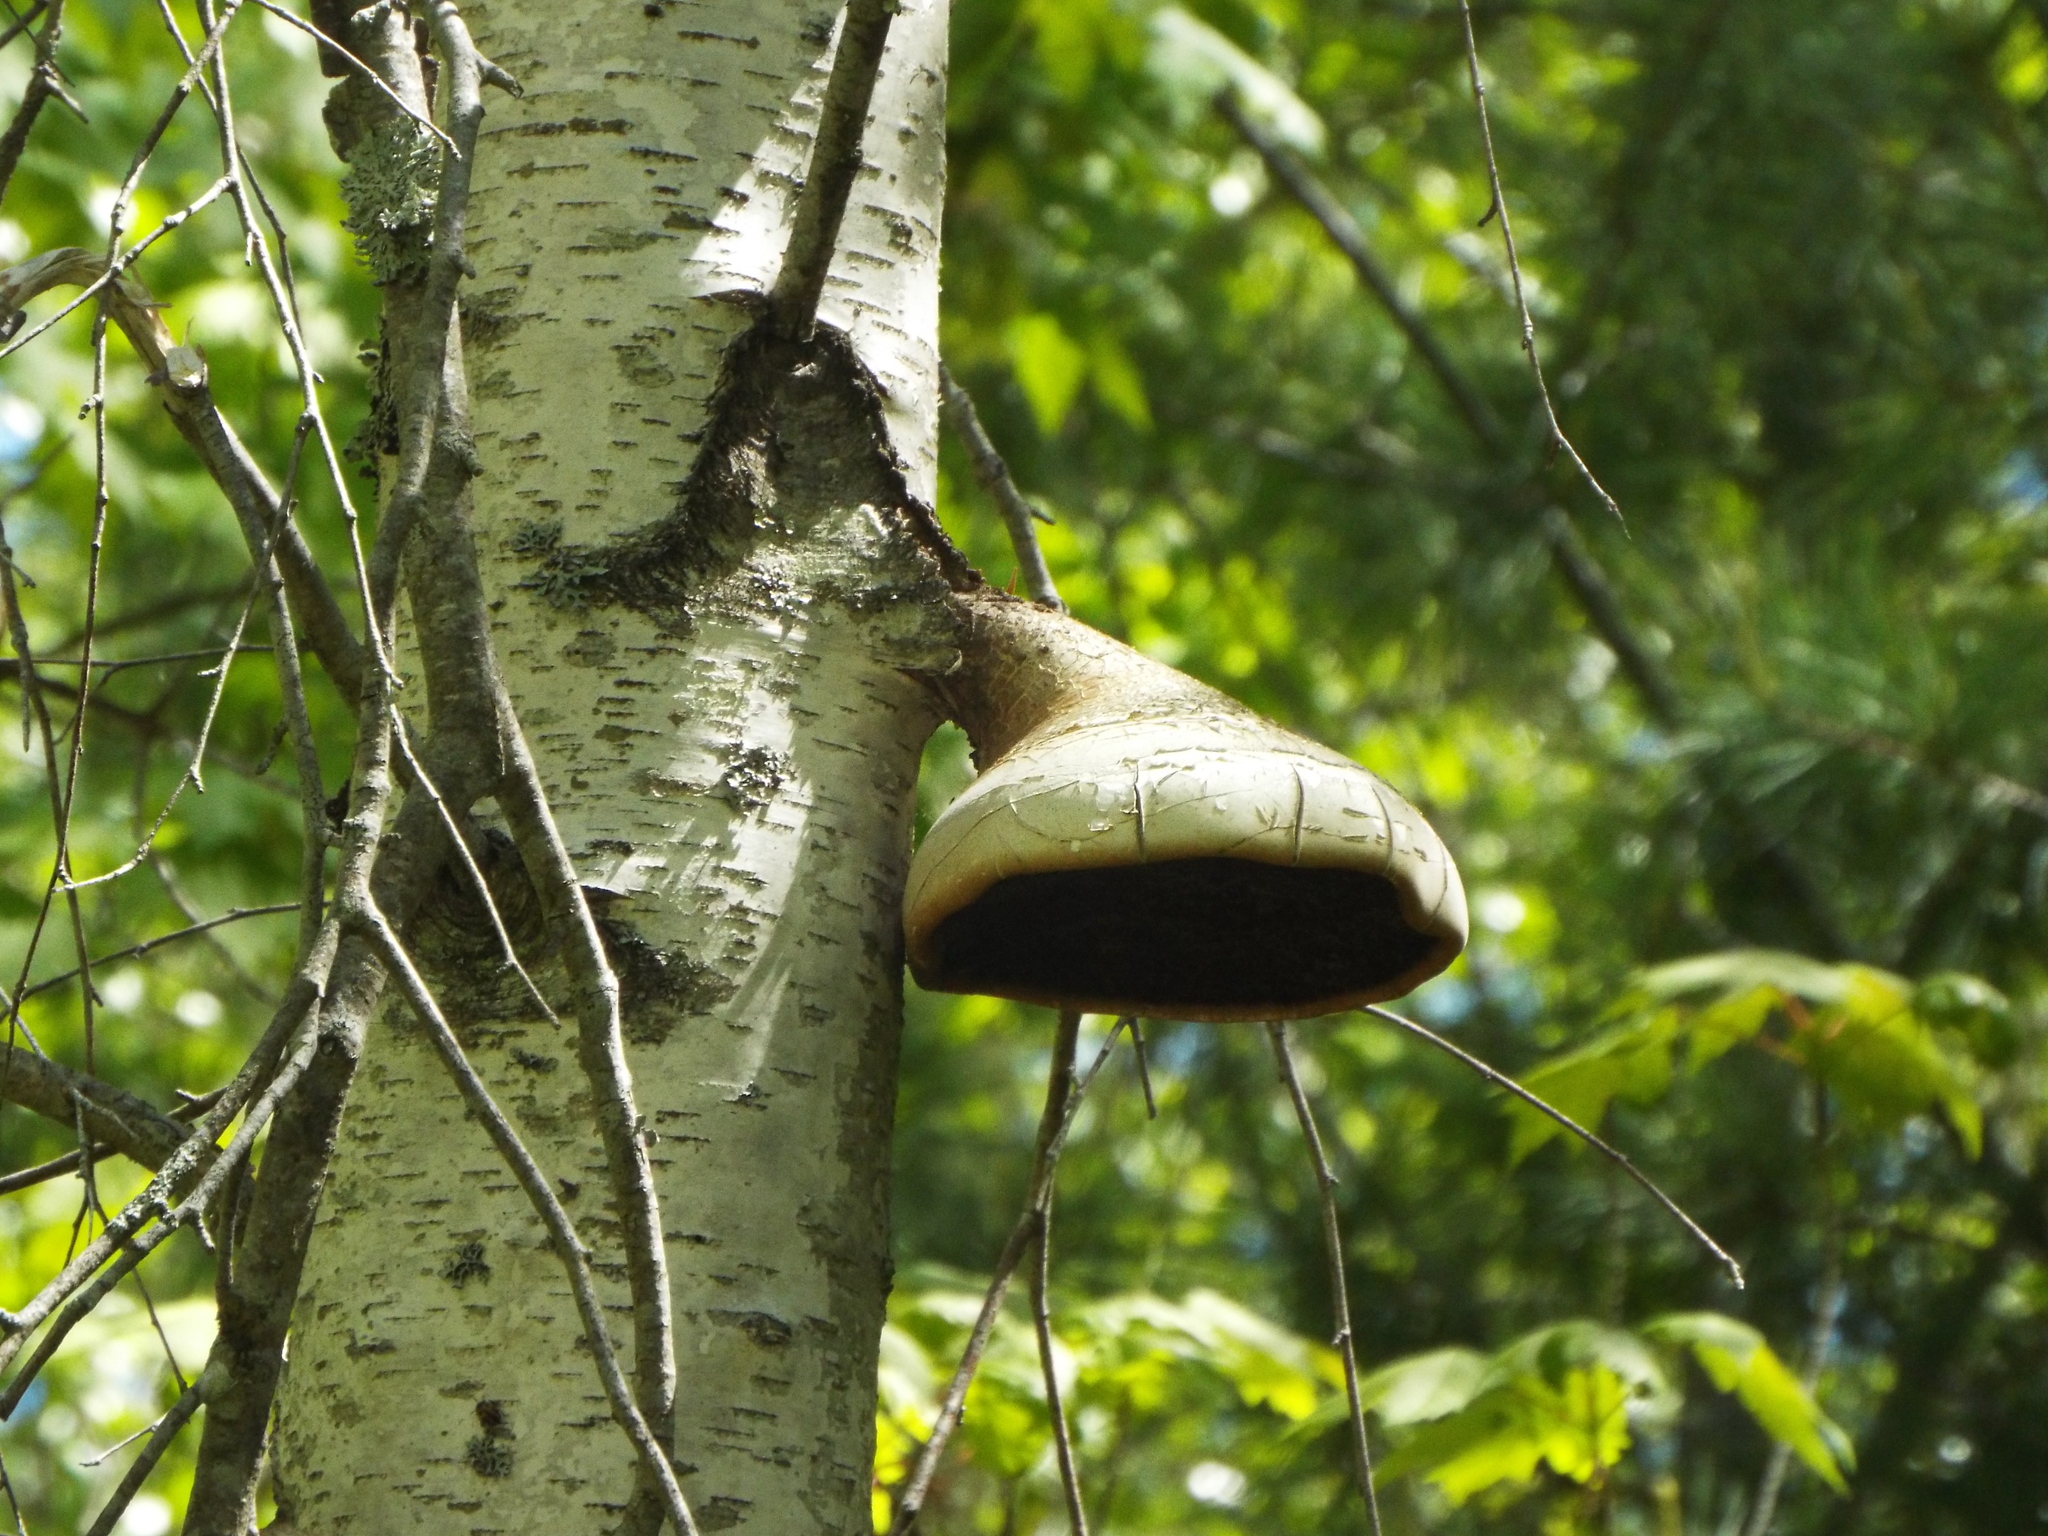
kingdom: Fungi
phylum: Basidiomycota
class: Agaricomycetes
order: Polyporales
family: Fomitopsidaceae
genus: Fomitopsis
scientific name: Fomitopsis betulina
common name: Birch polypore
